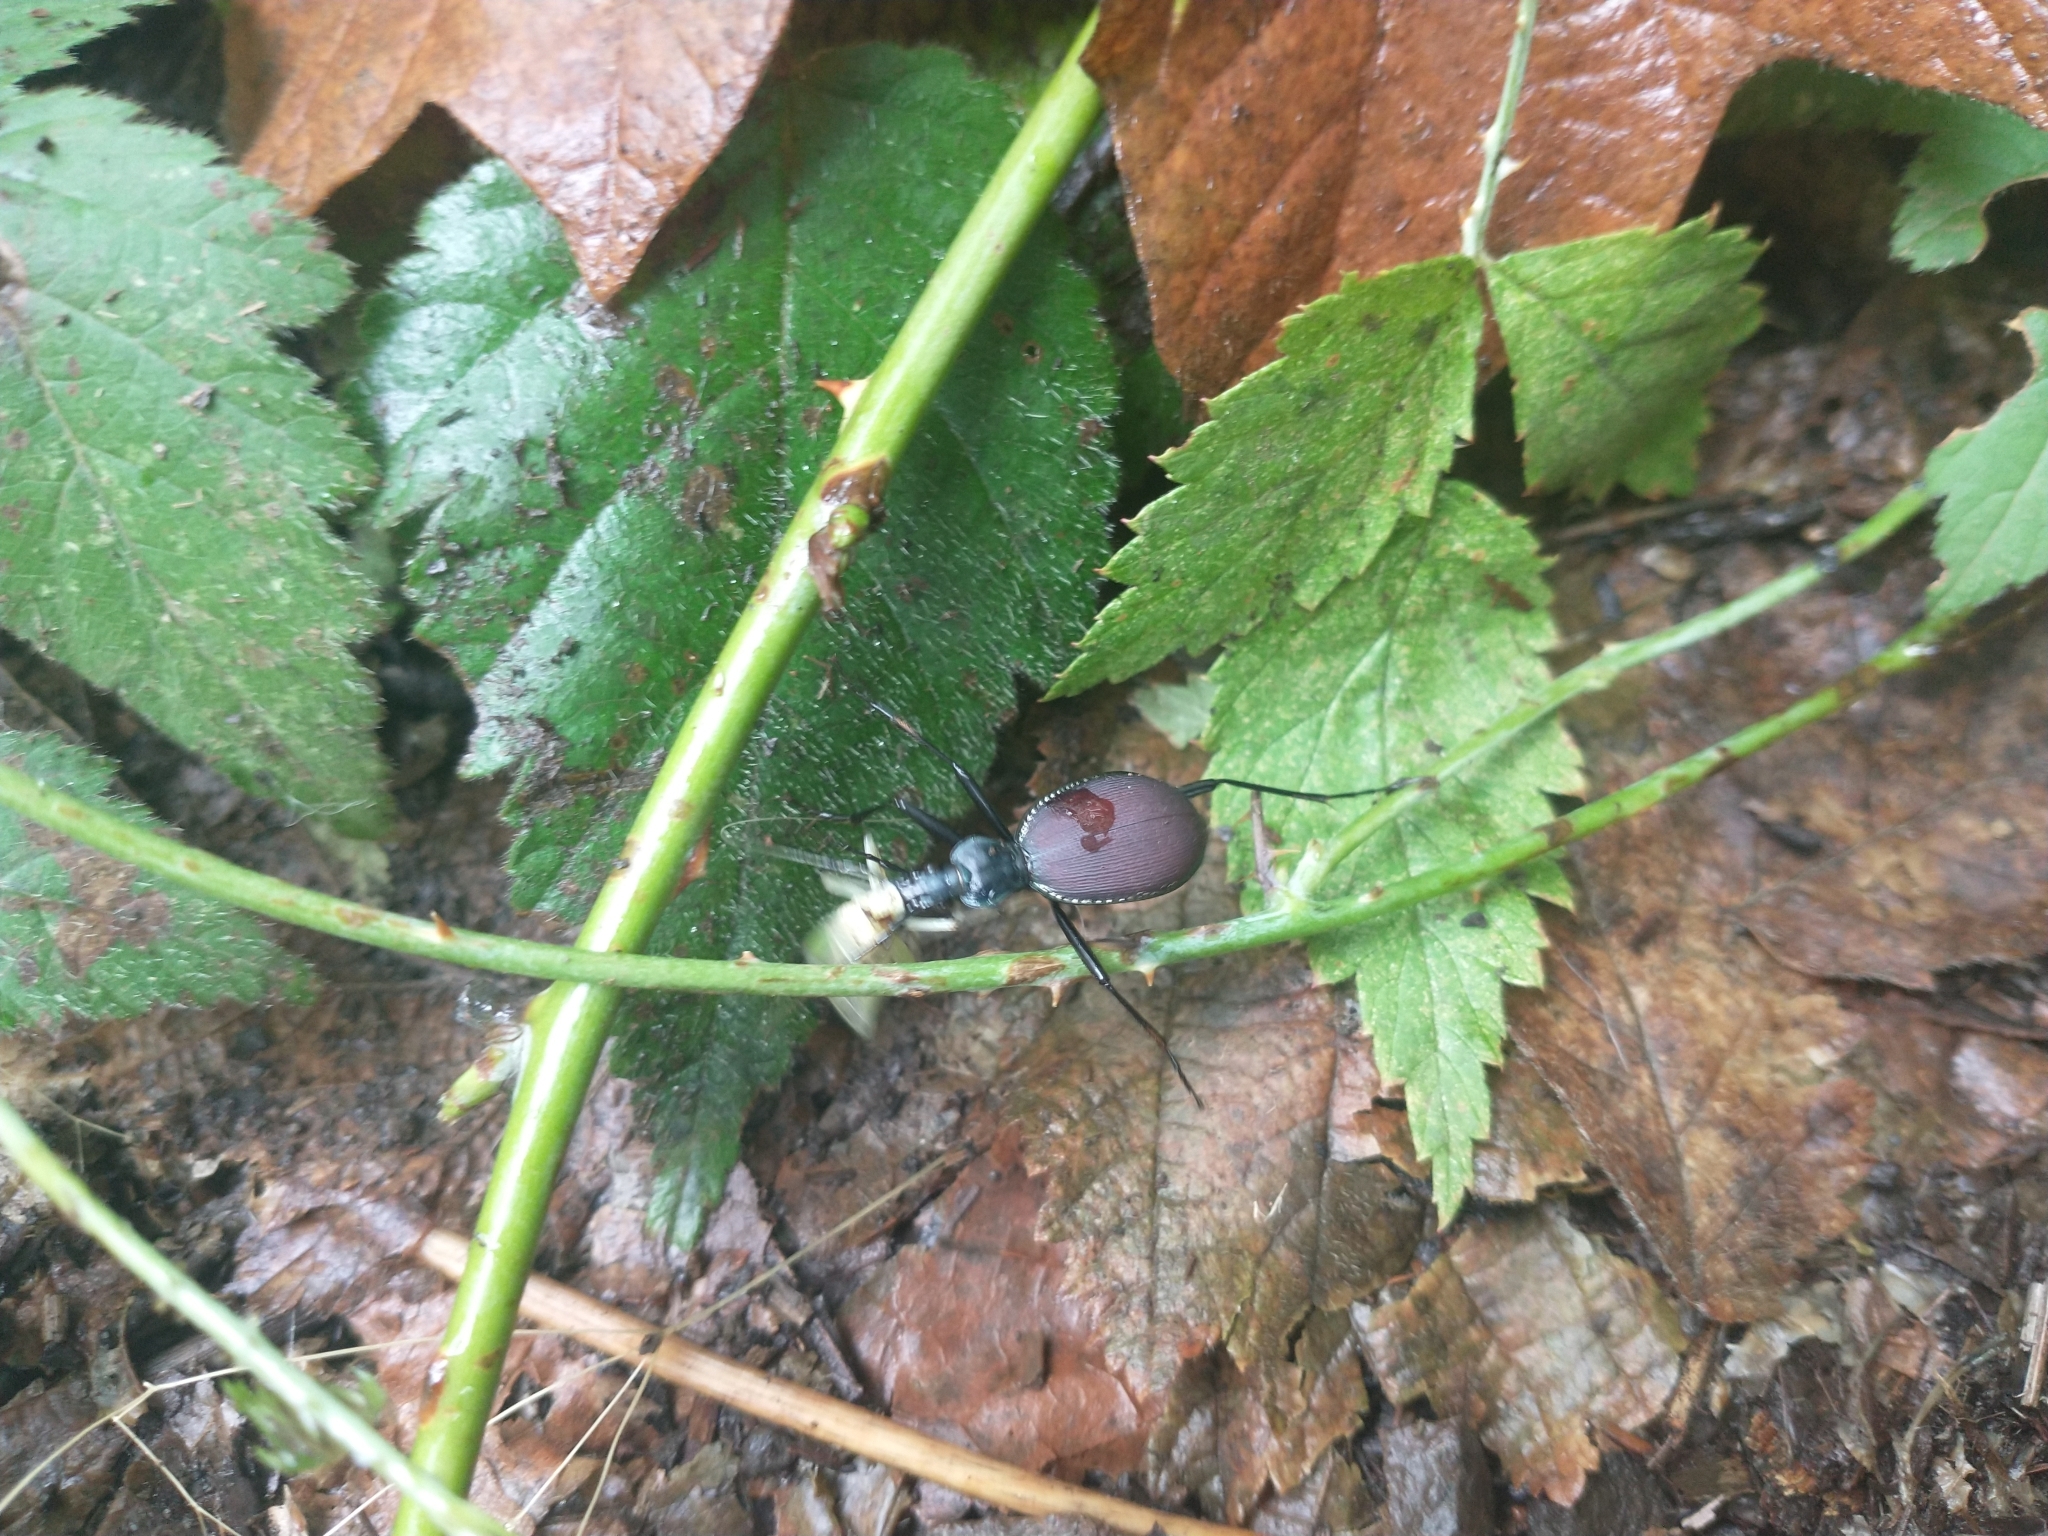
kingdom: Animalia
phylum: Arthropoda
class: Insecta
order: Coleoptera
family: Carabidae
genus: Scaphinotus
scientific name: Scaphinotus angusticollis
